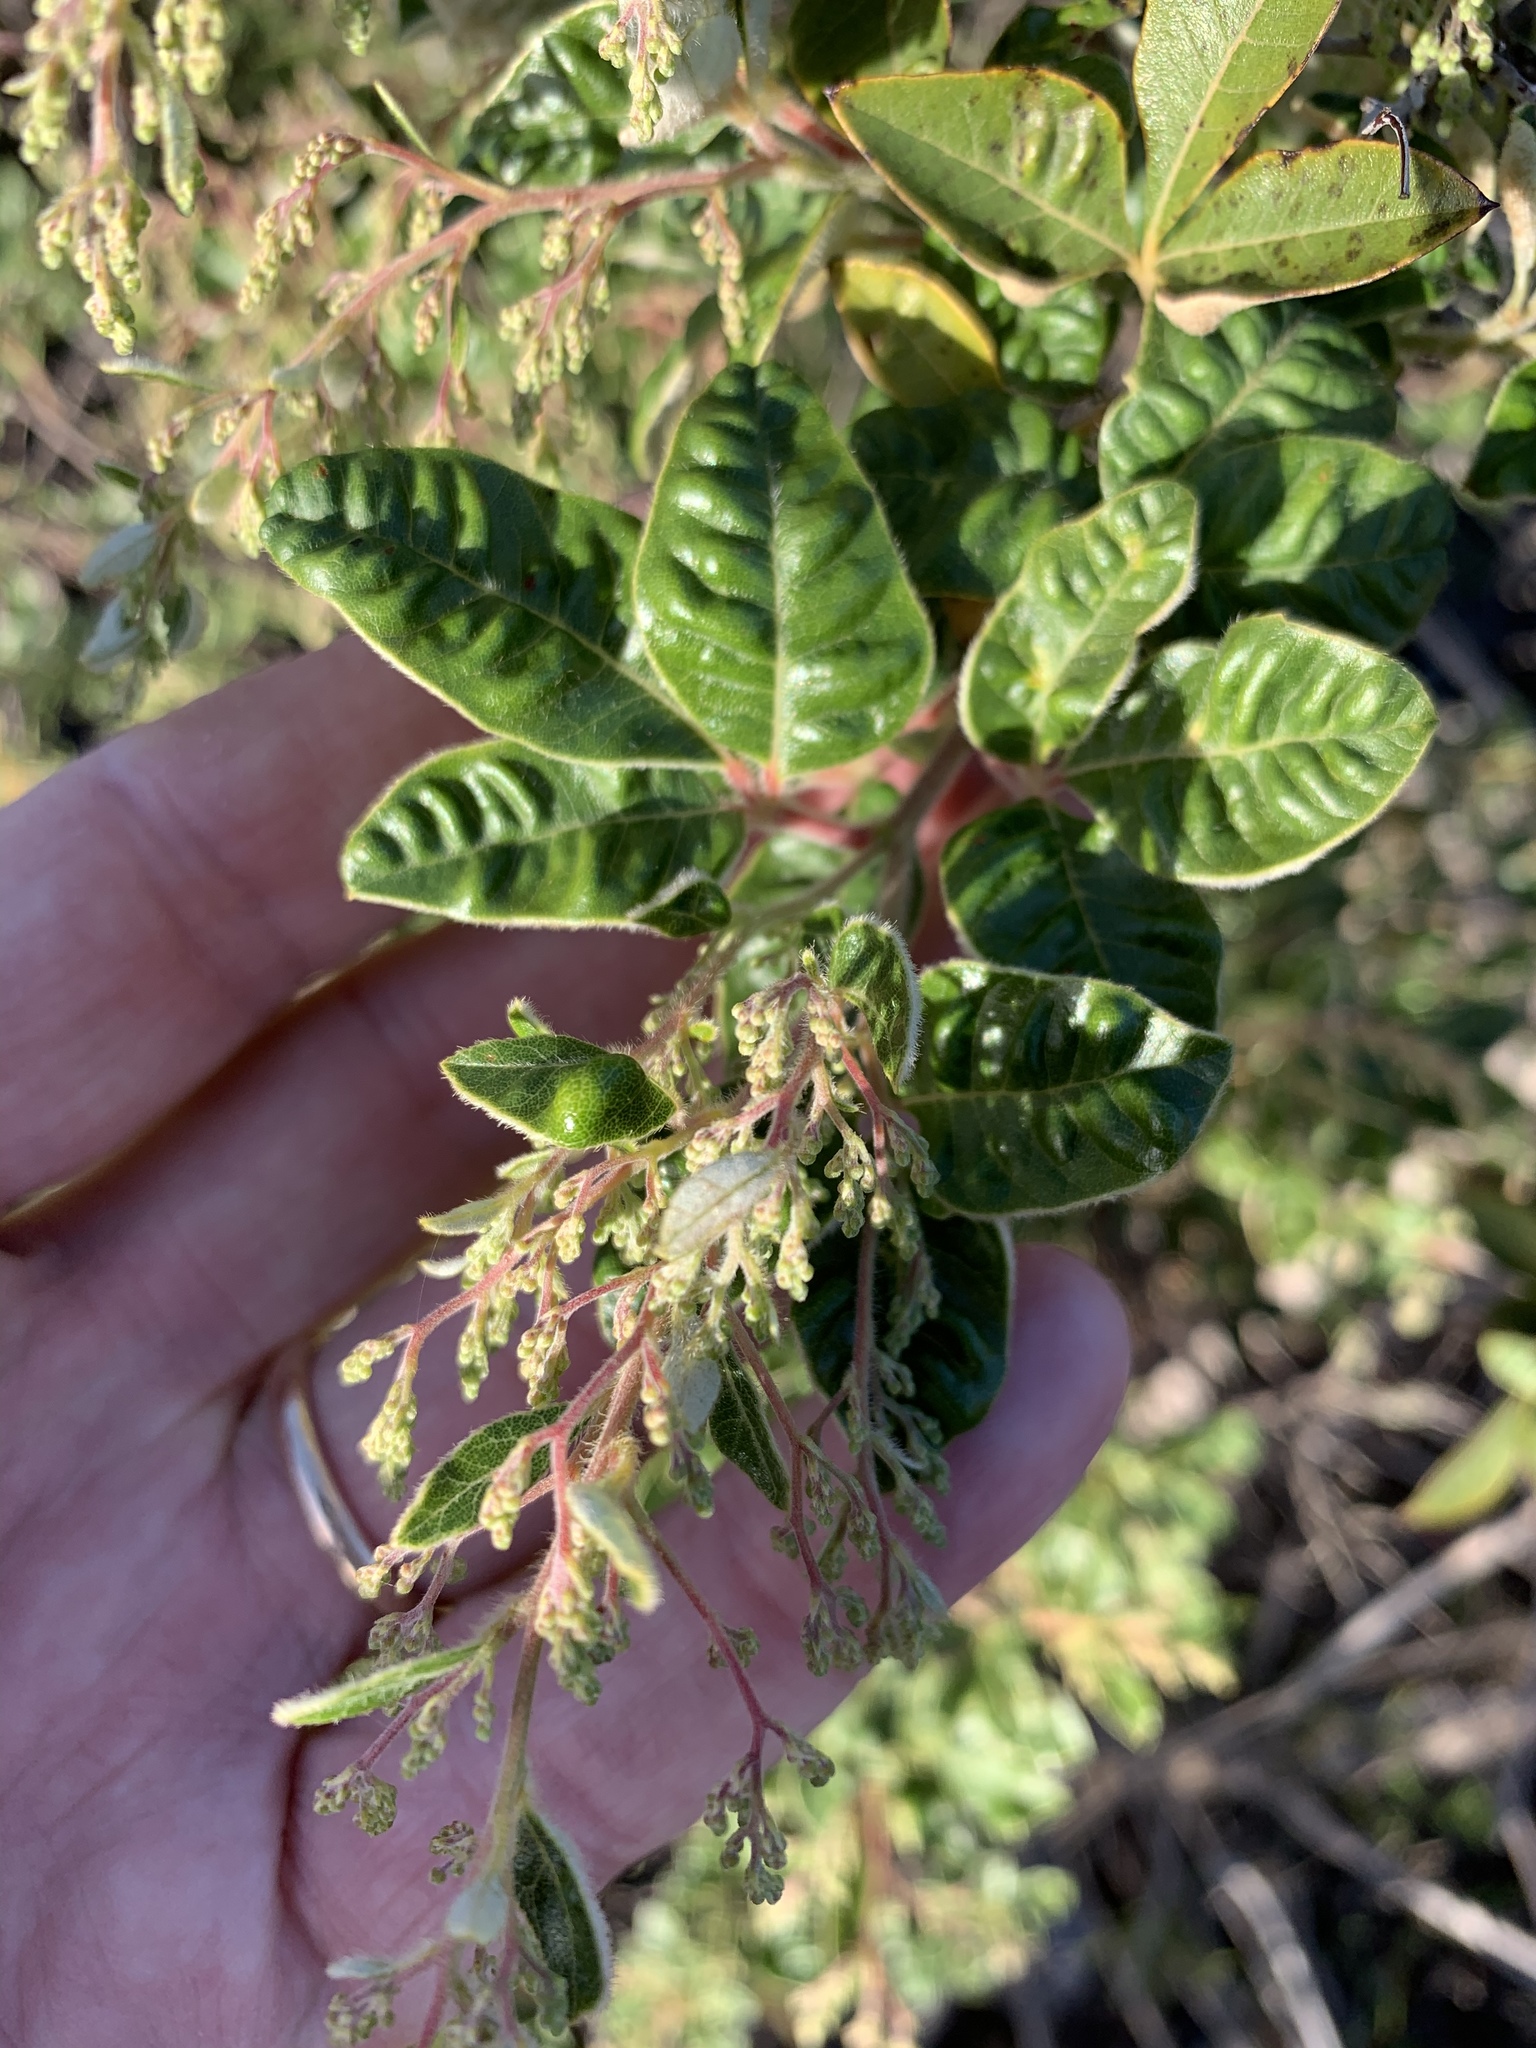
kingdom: Plantae
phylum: Tracheophyta
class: Magnoliopsida
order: Sapindales
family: Anacardiaceae
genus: Searsia
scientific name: Searsia tomentosa
